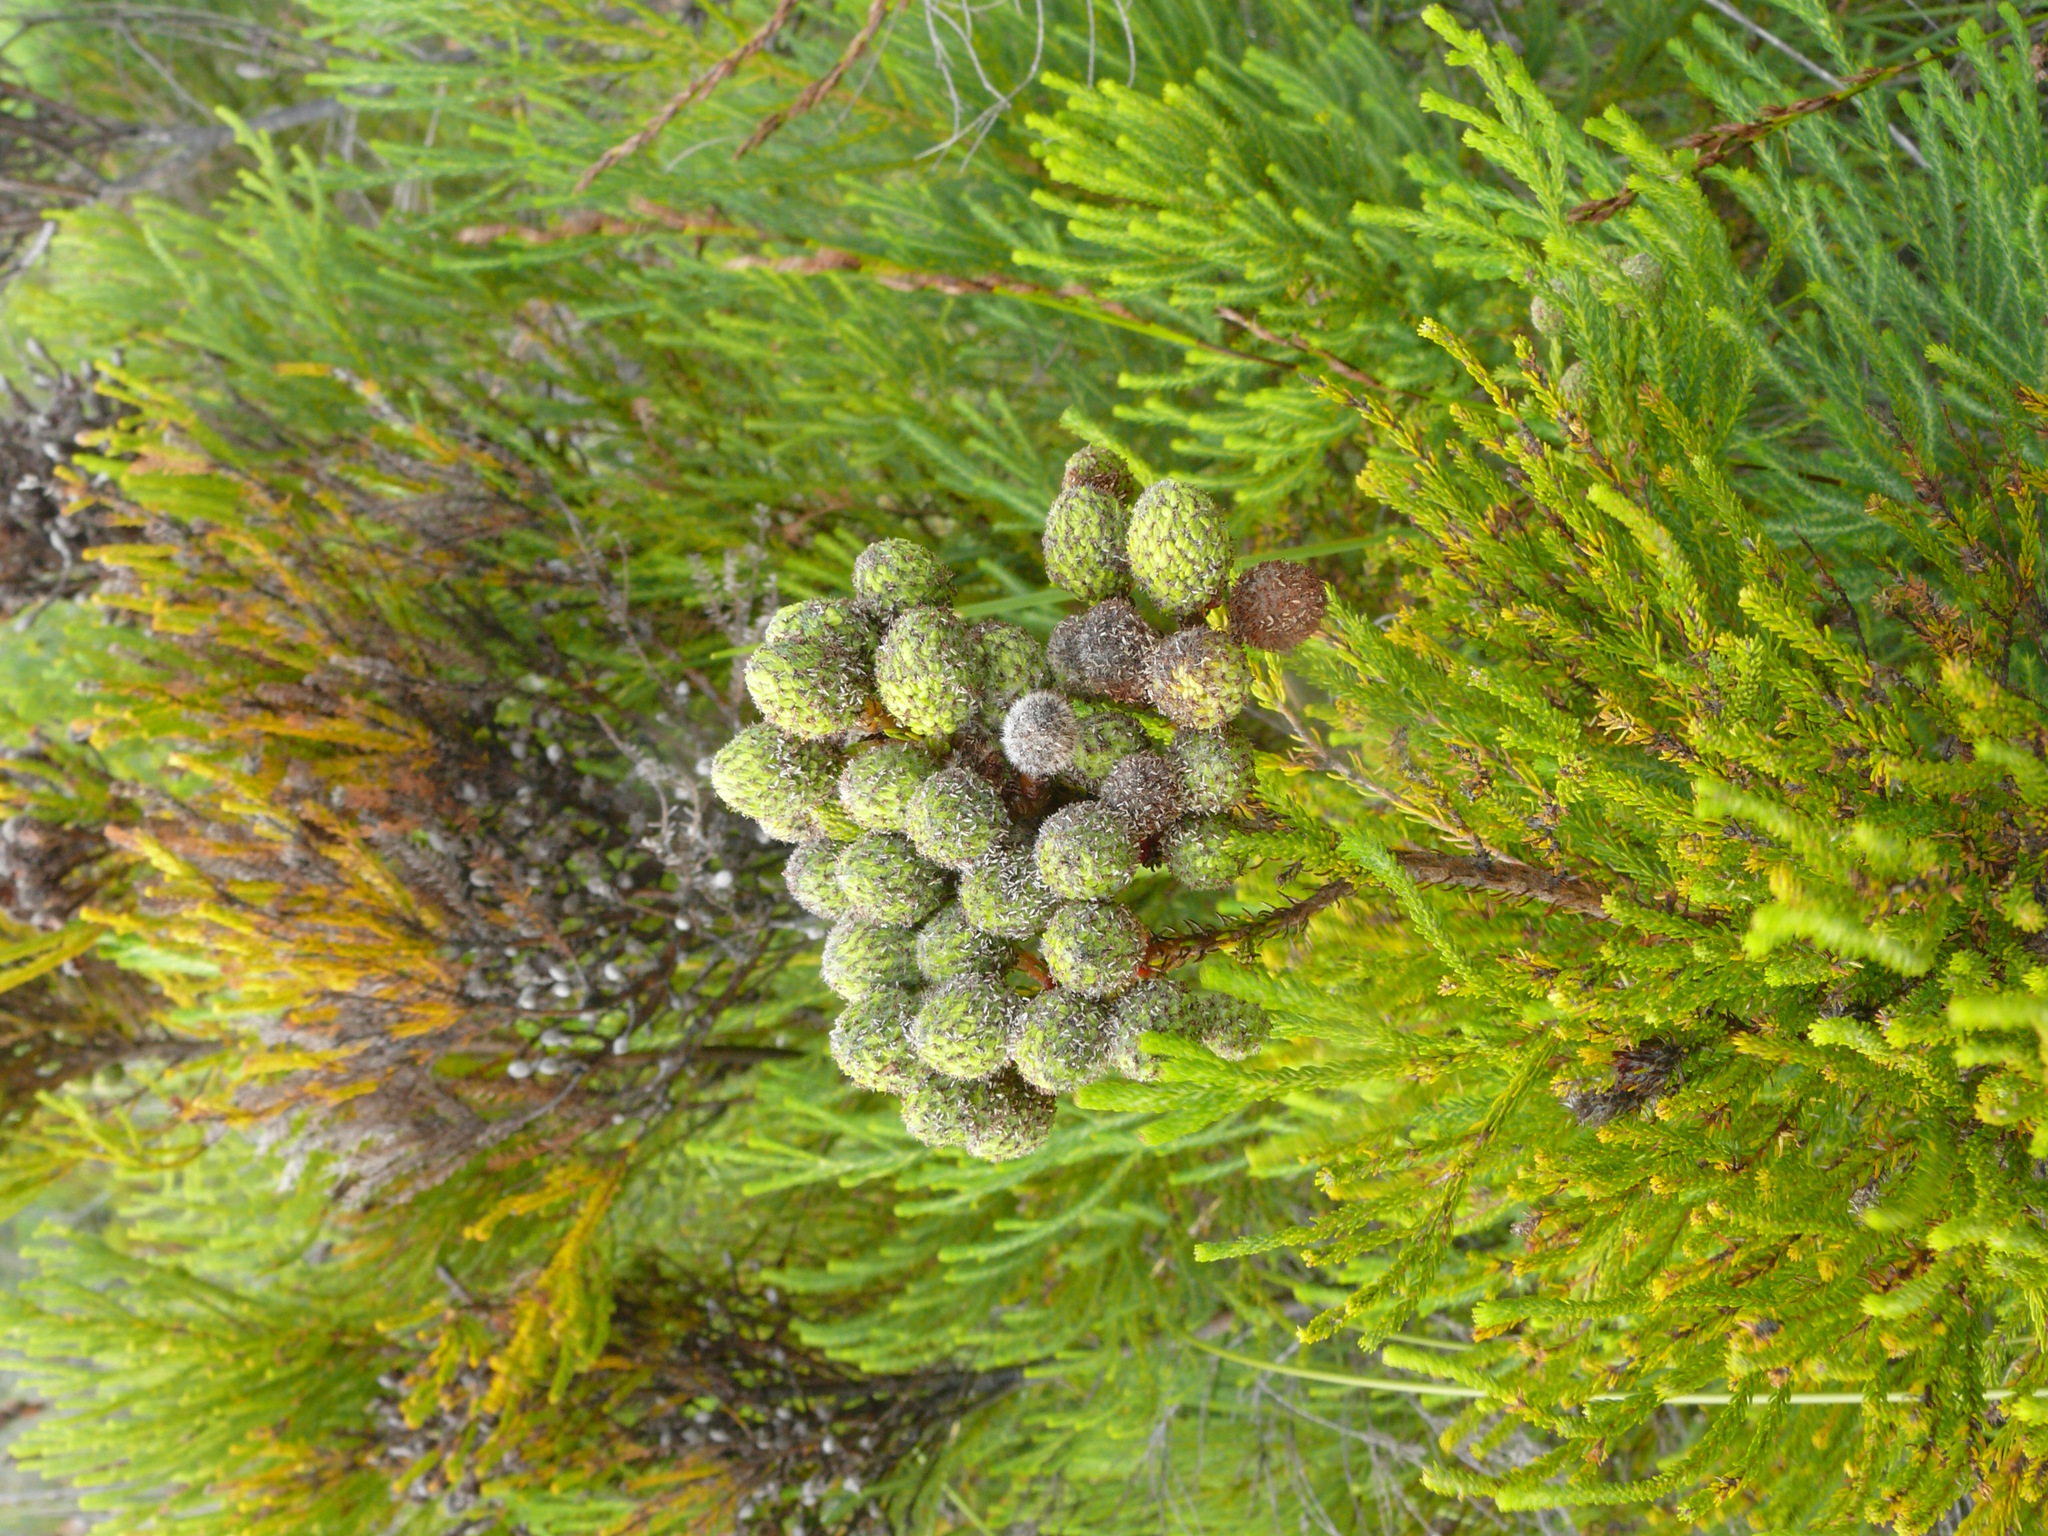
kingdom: Plantae
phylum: Tracheophyta
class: Magnoliopsida
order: Bruniales
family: Bruniaceae
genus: Berzelia
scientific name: Berzelia intermedia
